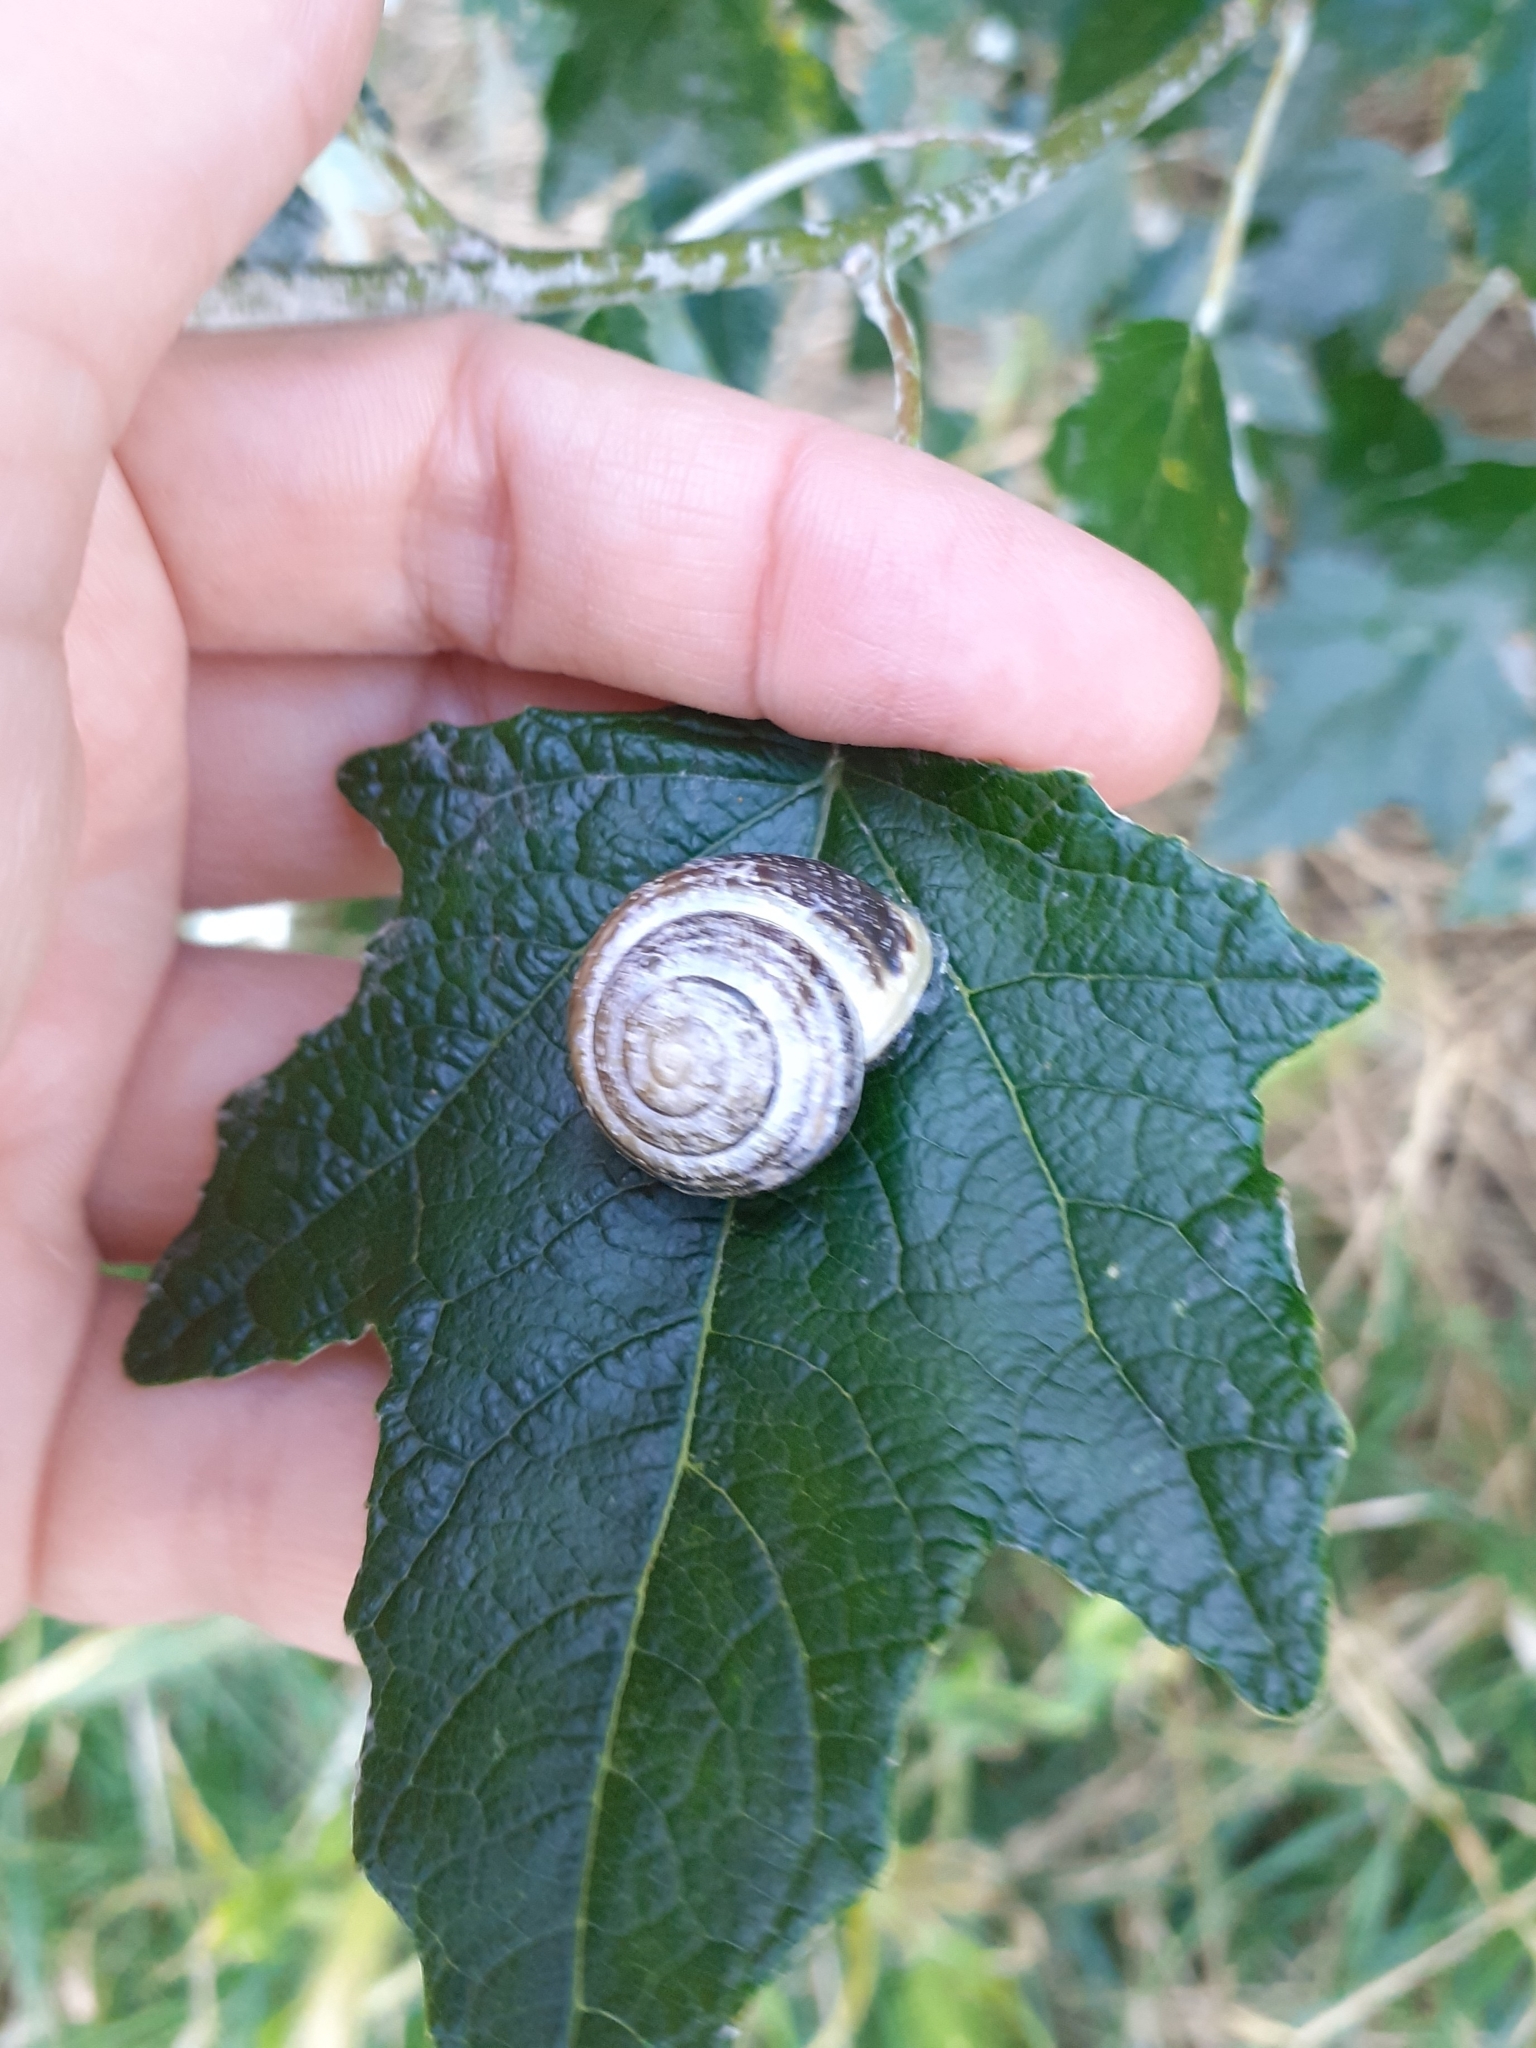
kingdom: Animalia
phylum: Mollusca
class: Gastropoda
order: Stylommatophora
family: Helicidae
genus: Cepaea
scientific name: Cepaea hortensis
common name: White-lip gardensnail
